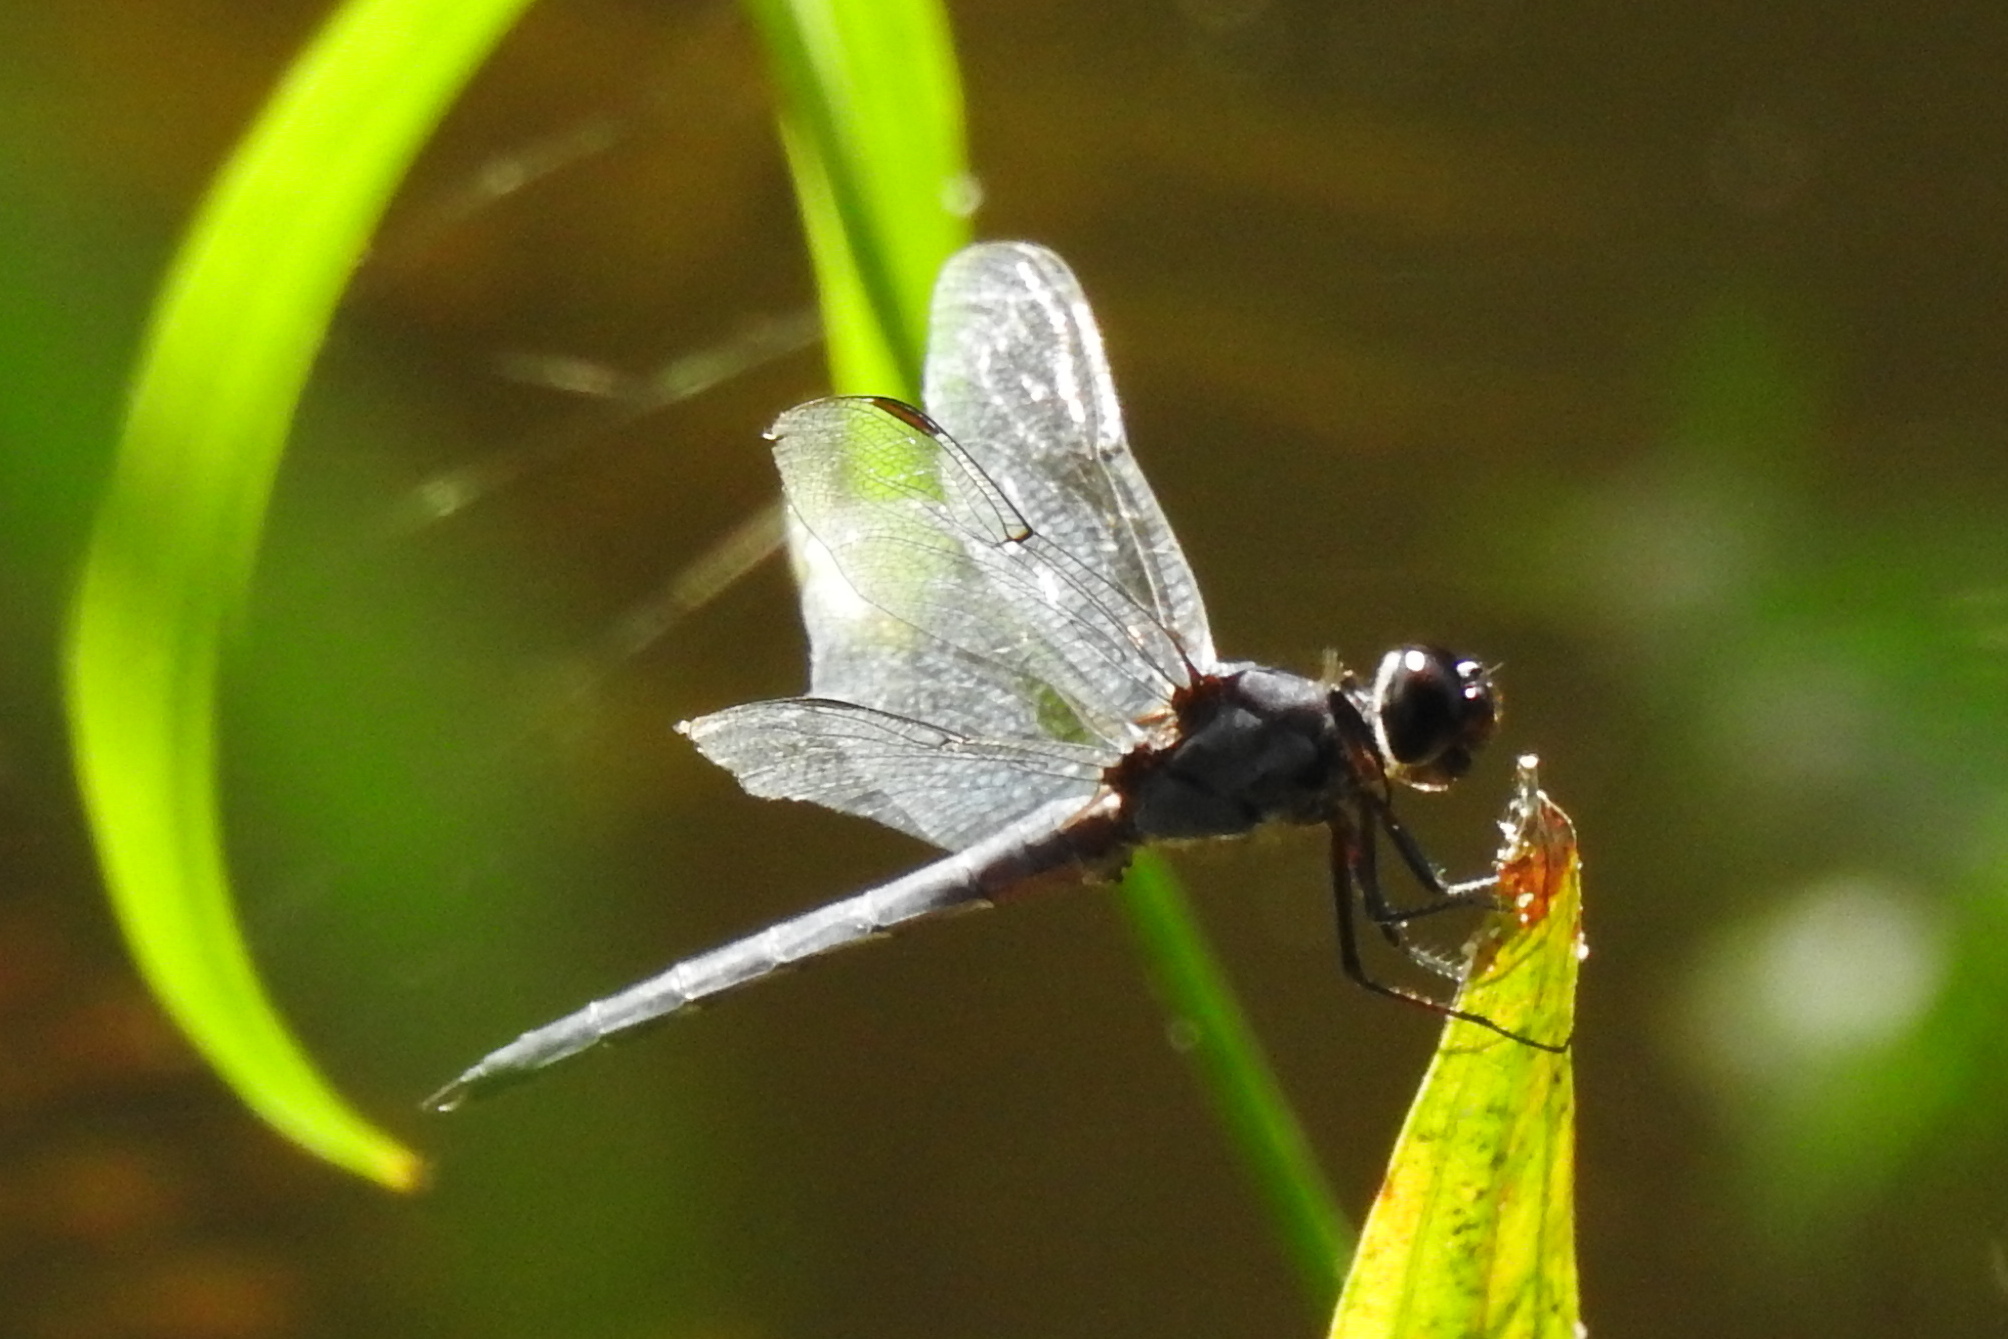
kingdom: Animalia
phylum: Arthropoda
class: Insecta
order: Odonata
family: Libellulidae
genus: Libellula
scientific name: Libellula incesta
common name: Slaty skimmer
